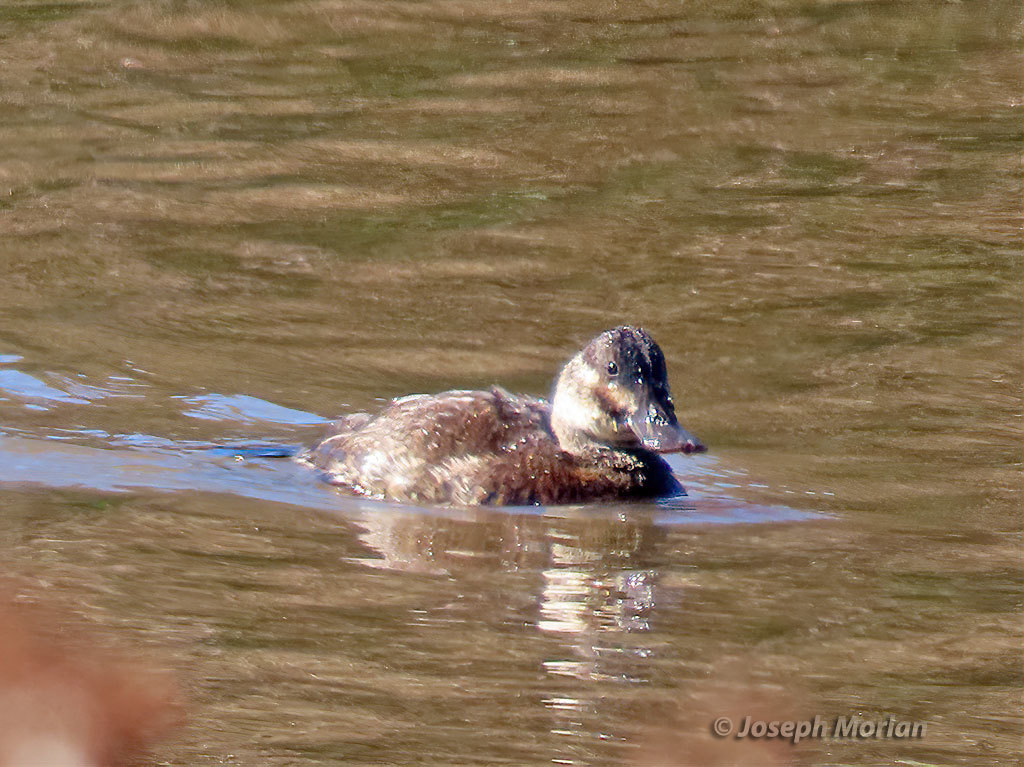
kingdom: Animalia
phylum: Chordata
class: Aves
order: Anseriformes
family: Anatidae
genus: Oxyura
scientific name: Oxyura jamaicensis
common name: Ruddy duck
